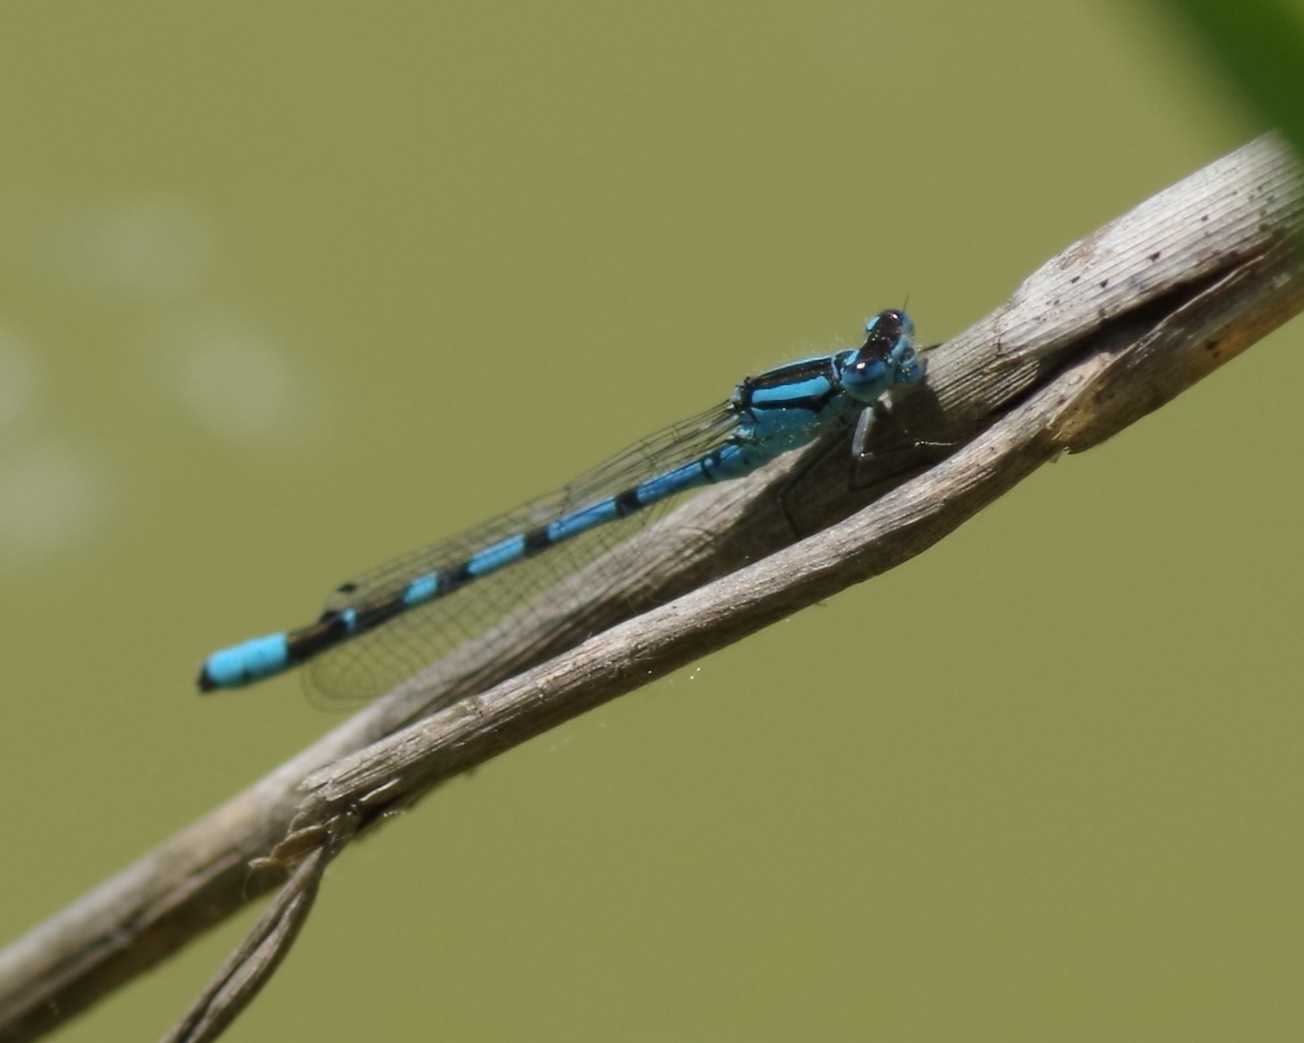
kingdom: Animalia
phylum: Arthropoda
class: Insecta
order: Odonata
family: Coenagrionidae
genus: Enallagma
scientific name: Enallagma cyathigerum
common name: Common blue damselfly
